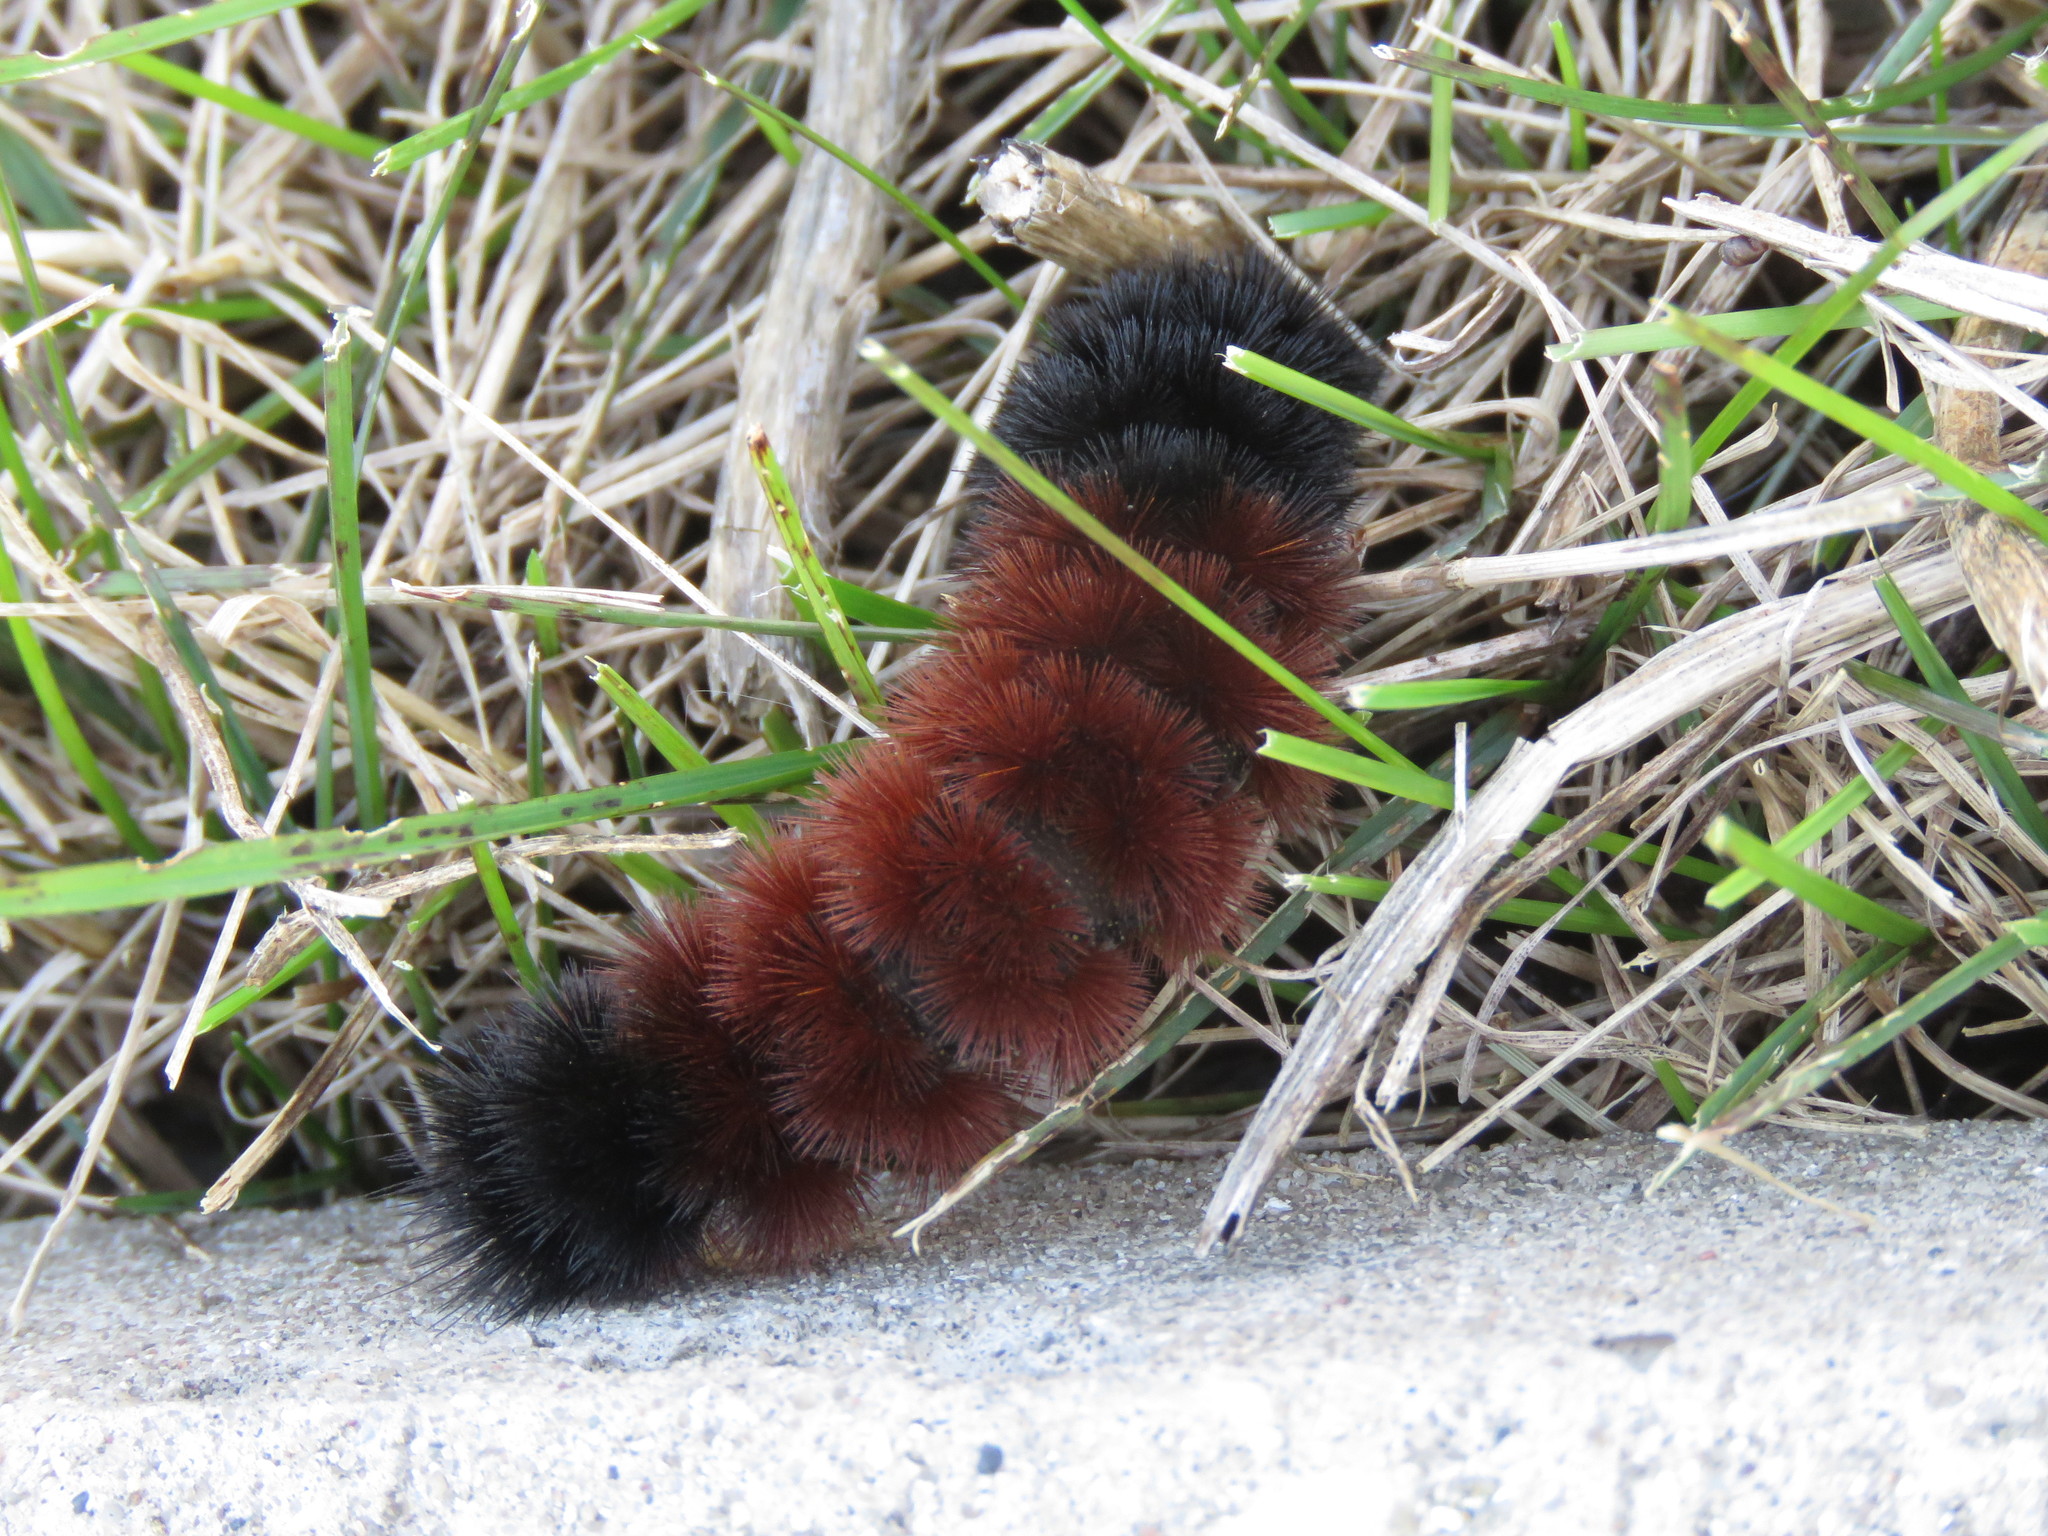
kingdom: Animalia
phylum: Arthropoda
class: Insecta
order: Lepidoptera
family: Erebidae
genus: Pyrrharctia
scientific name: Pyrrharctia isabella
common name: Isabella tiger moth
